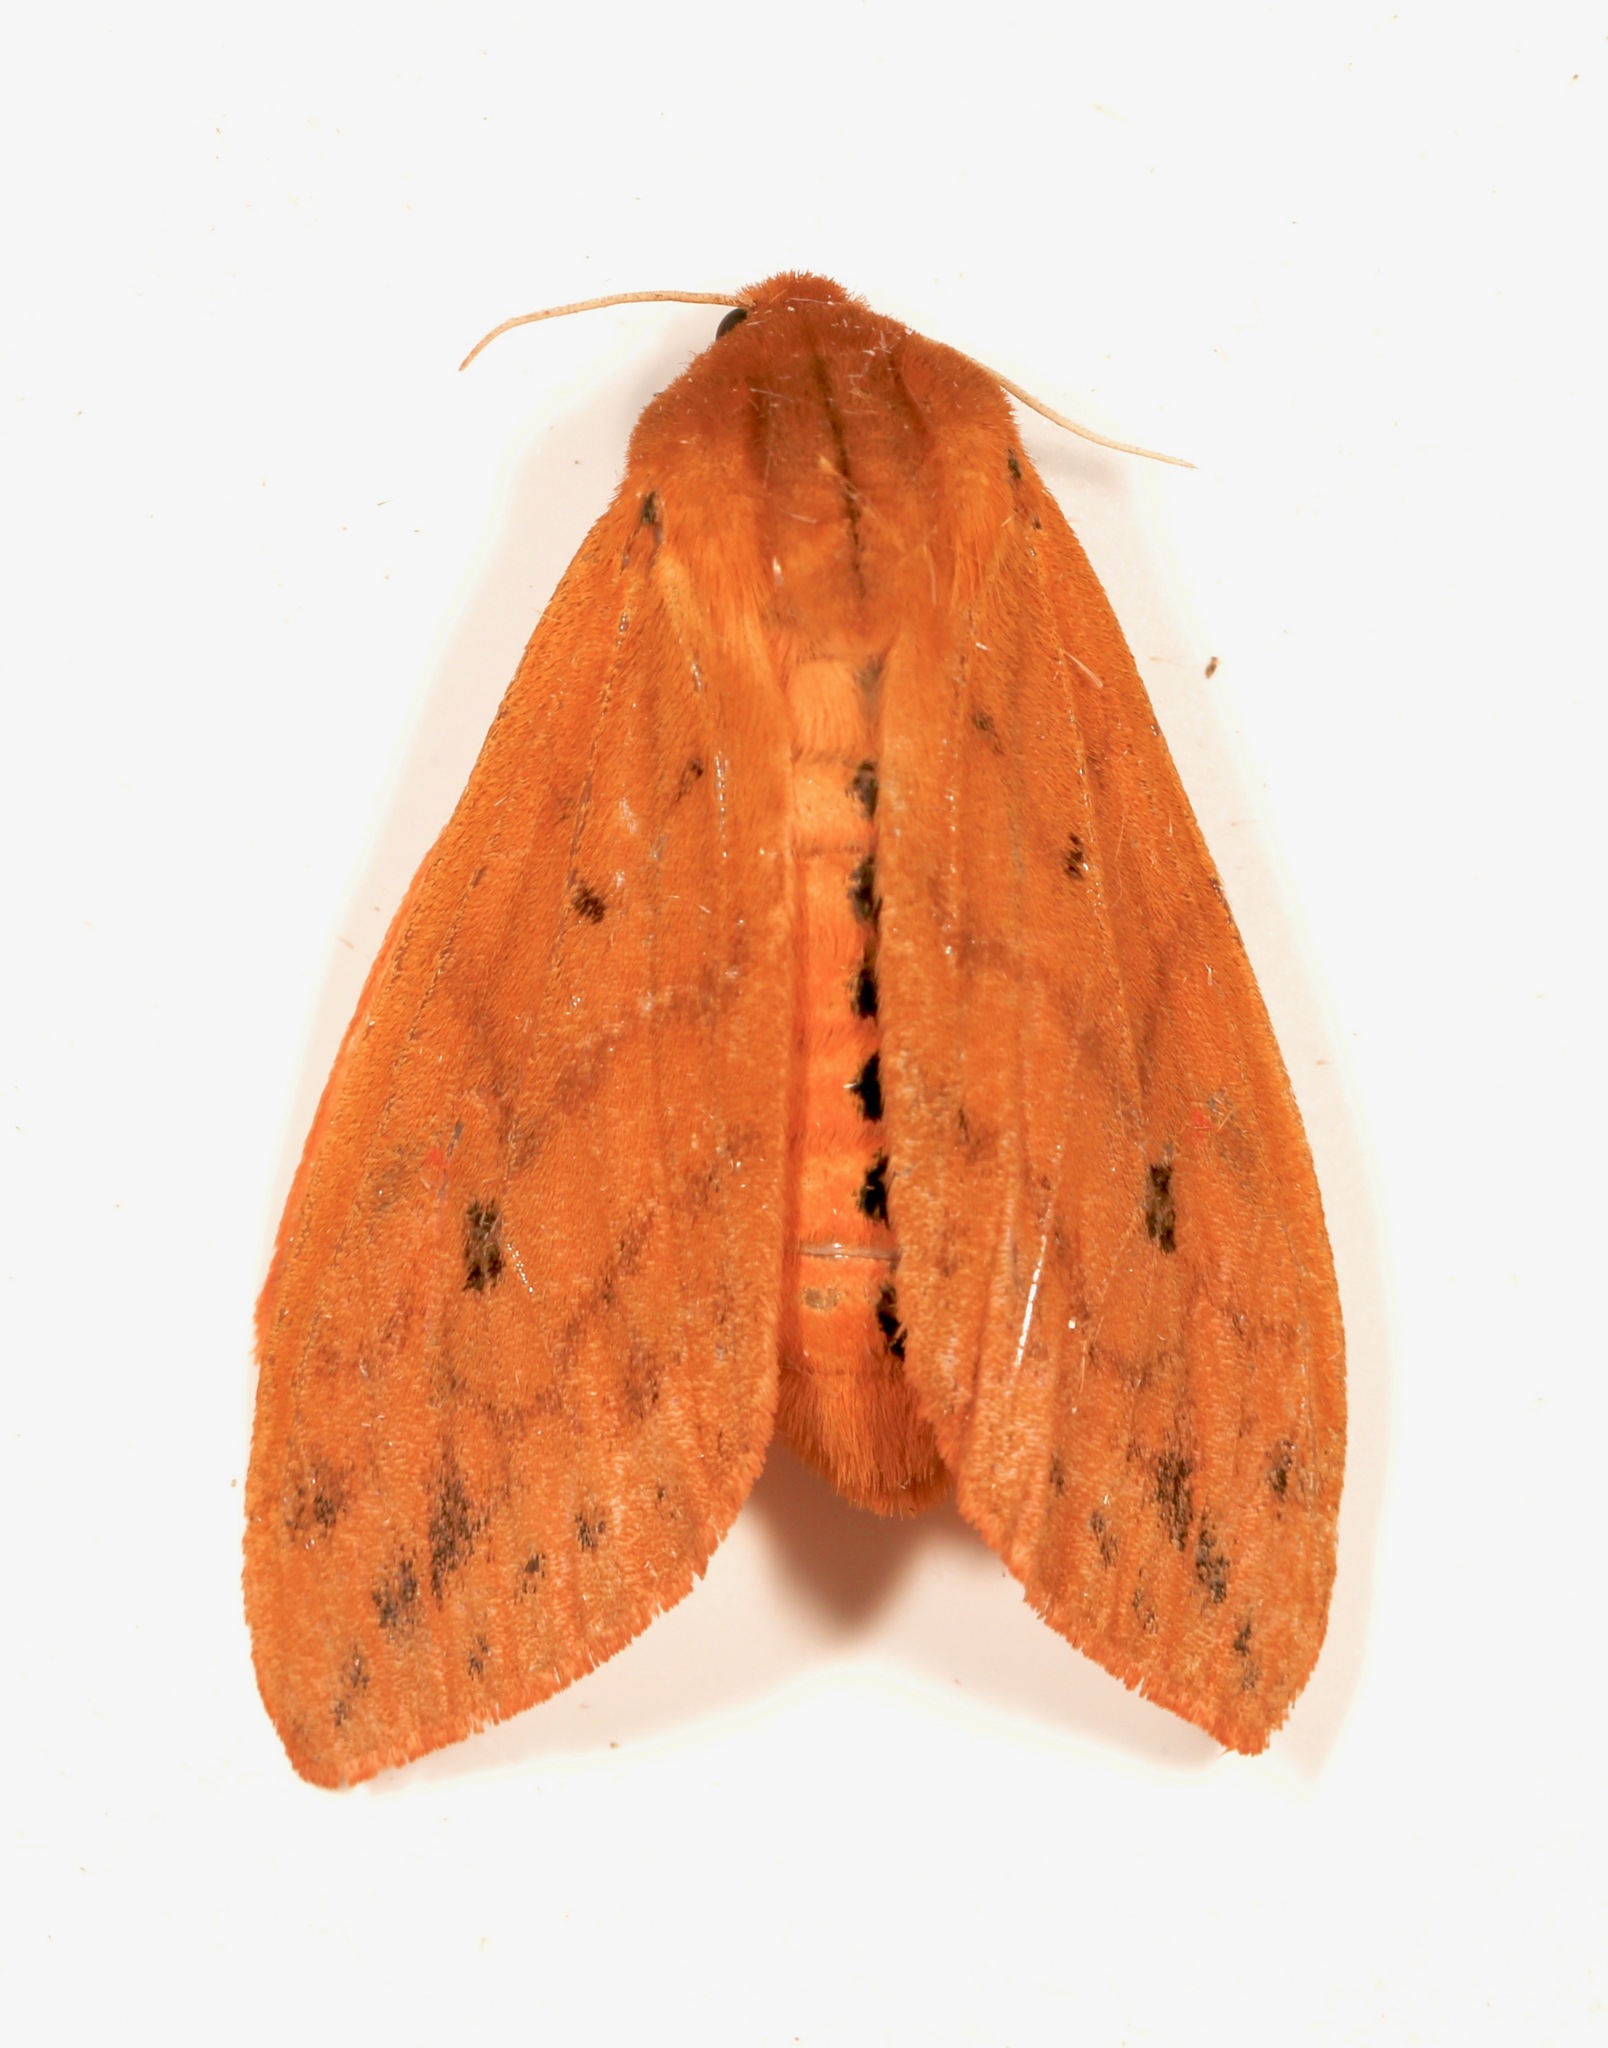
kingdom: Animalia
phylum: Arthropoda
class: Insecta
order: Lepidoptera
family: Erebidae
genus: Pyrrharctia
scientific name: Pyrrharctia isabella
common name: Isabella tiger moth
